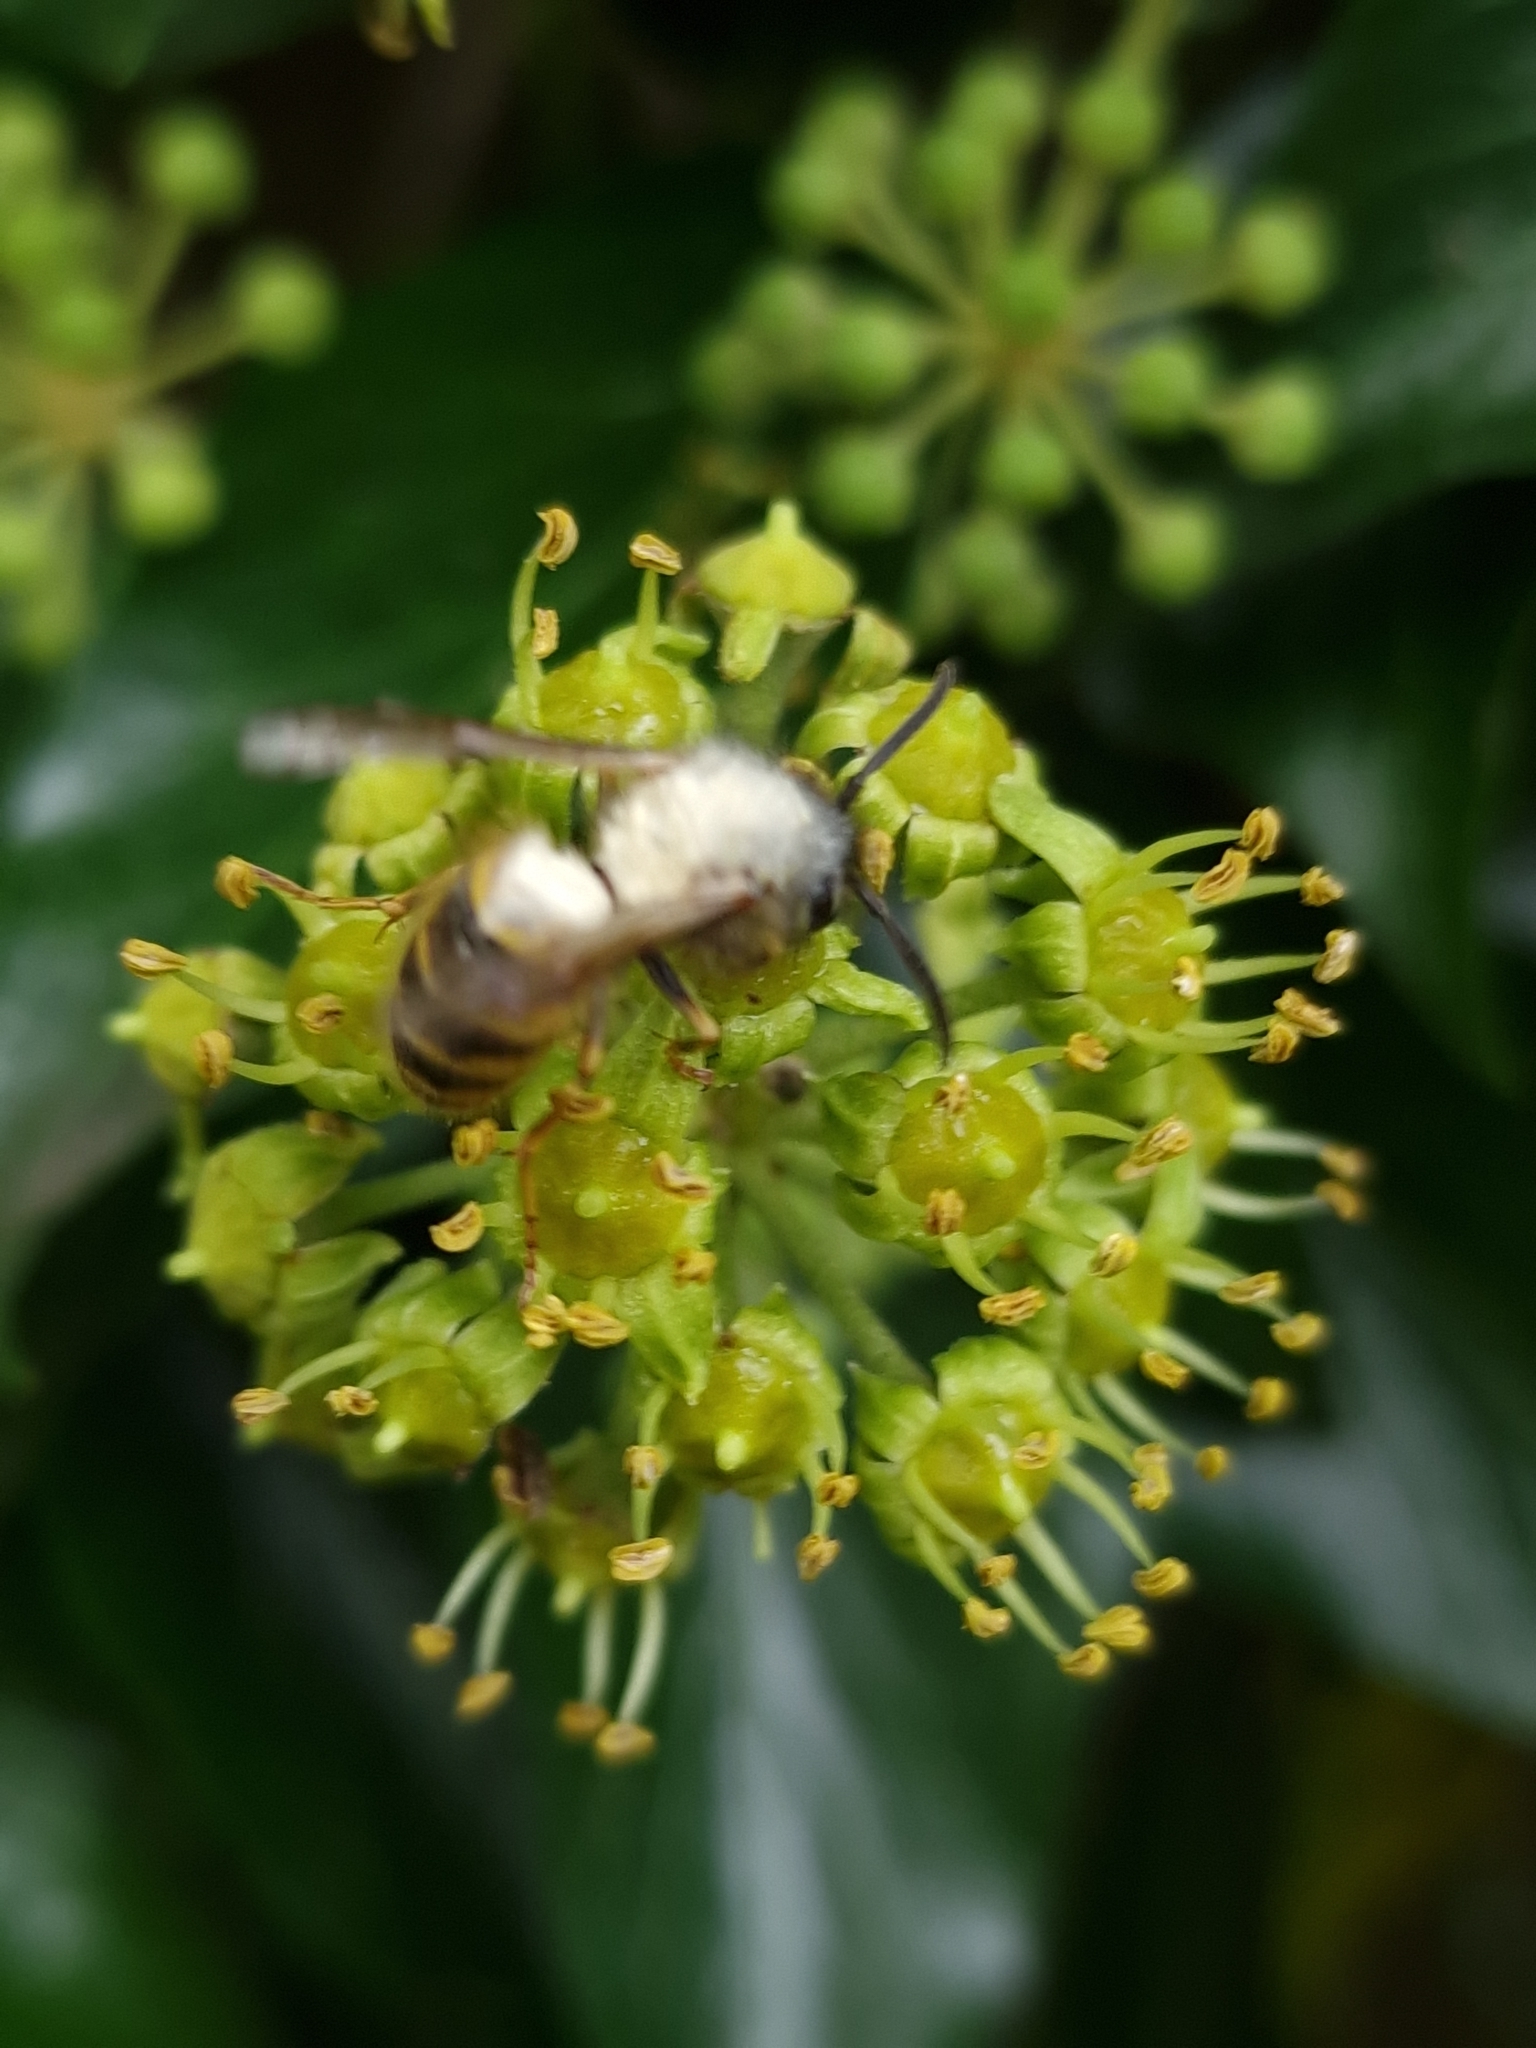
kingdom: Animalia
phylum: Arthropoda
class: Insecta
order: Hymenoptera
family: Vespidae
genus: Vespula
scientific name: Vespula vulgaris
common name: Common wasp
